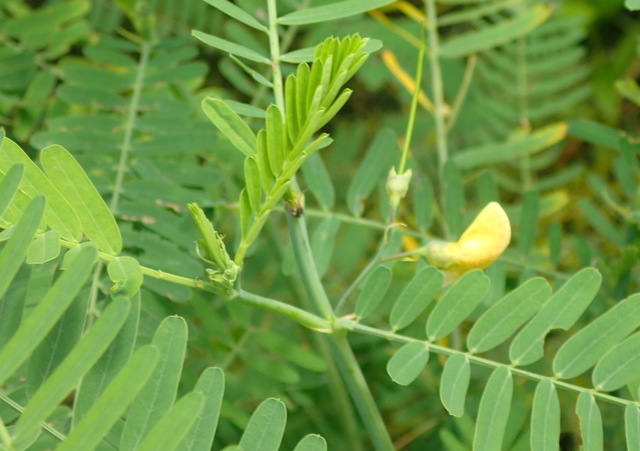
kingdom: Plantae
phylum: Tracheophyta
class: Magnoliopsida
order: Fabales
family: Fabaceae
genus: Sesbania
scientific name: Sesbania herbacea
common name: Bigpod sesbania
